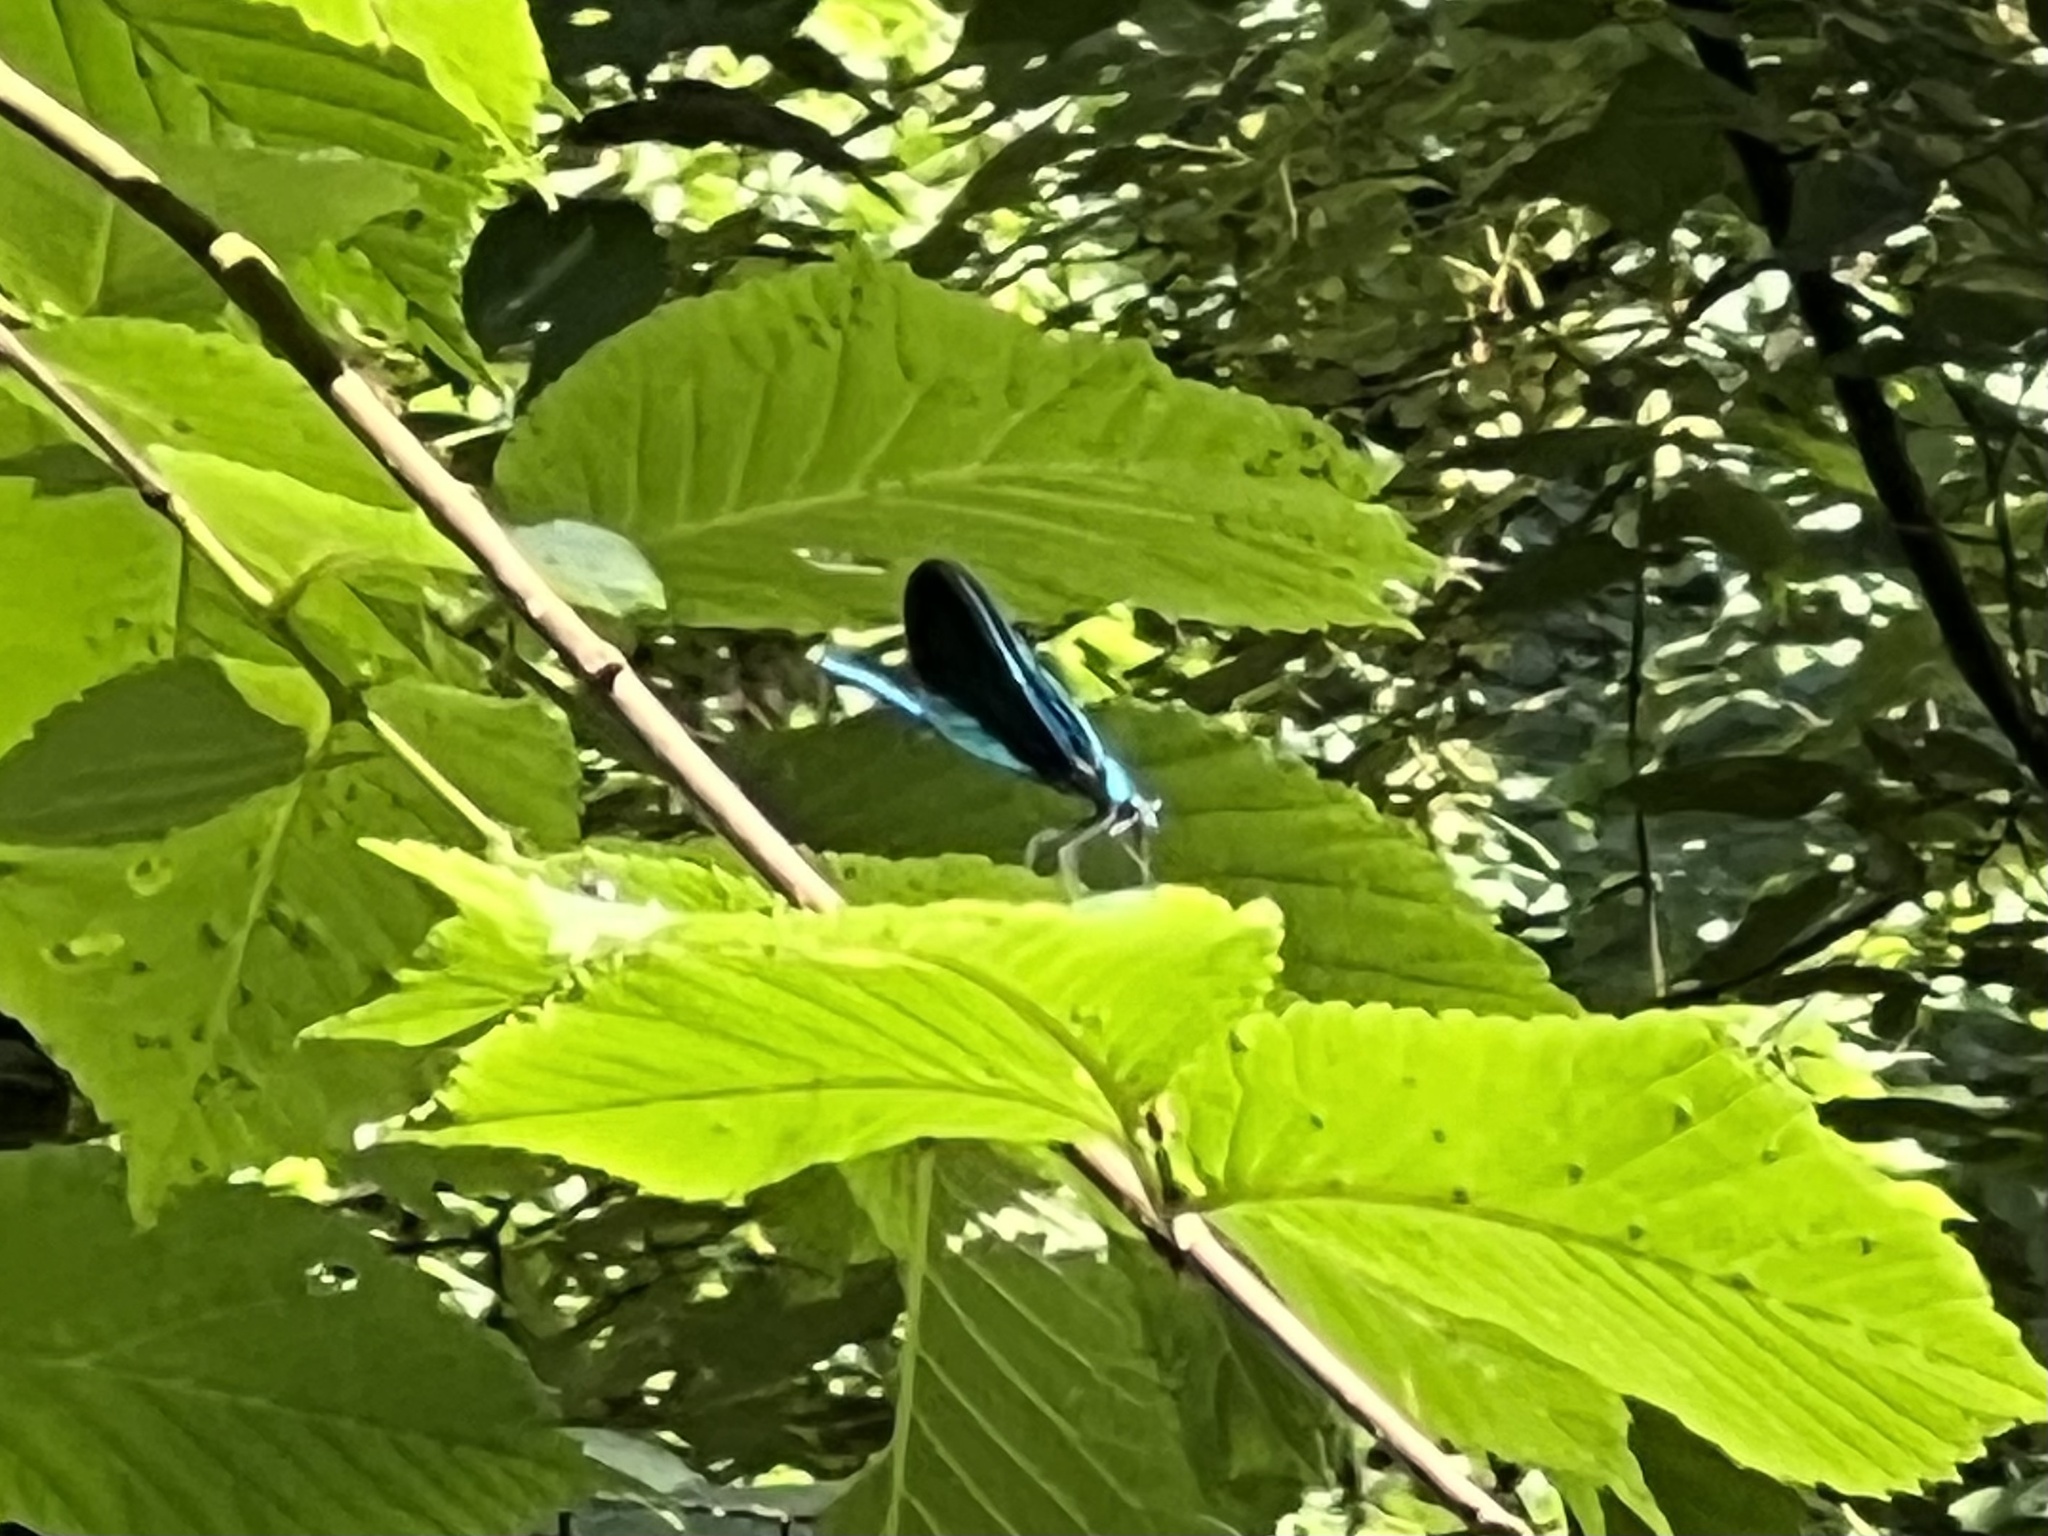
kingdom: Animalia
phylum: Arthropoda
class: Insecta
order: Odonata
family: Calopterygidae
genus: Calopteryx
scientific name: Calopteryx virgo
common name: Beautiful demoiselle
